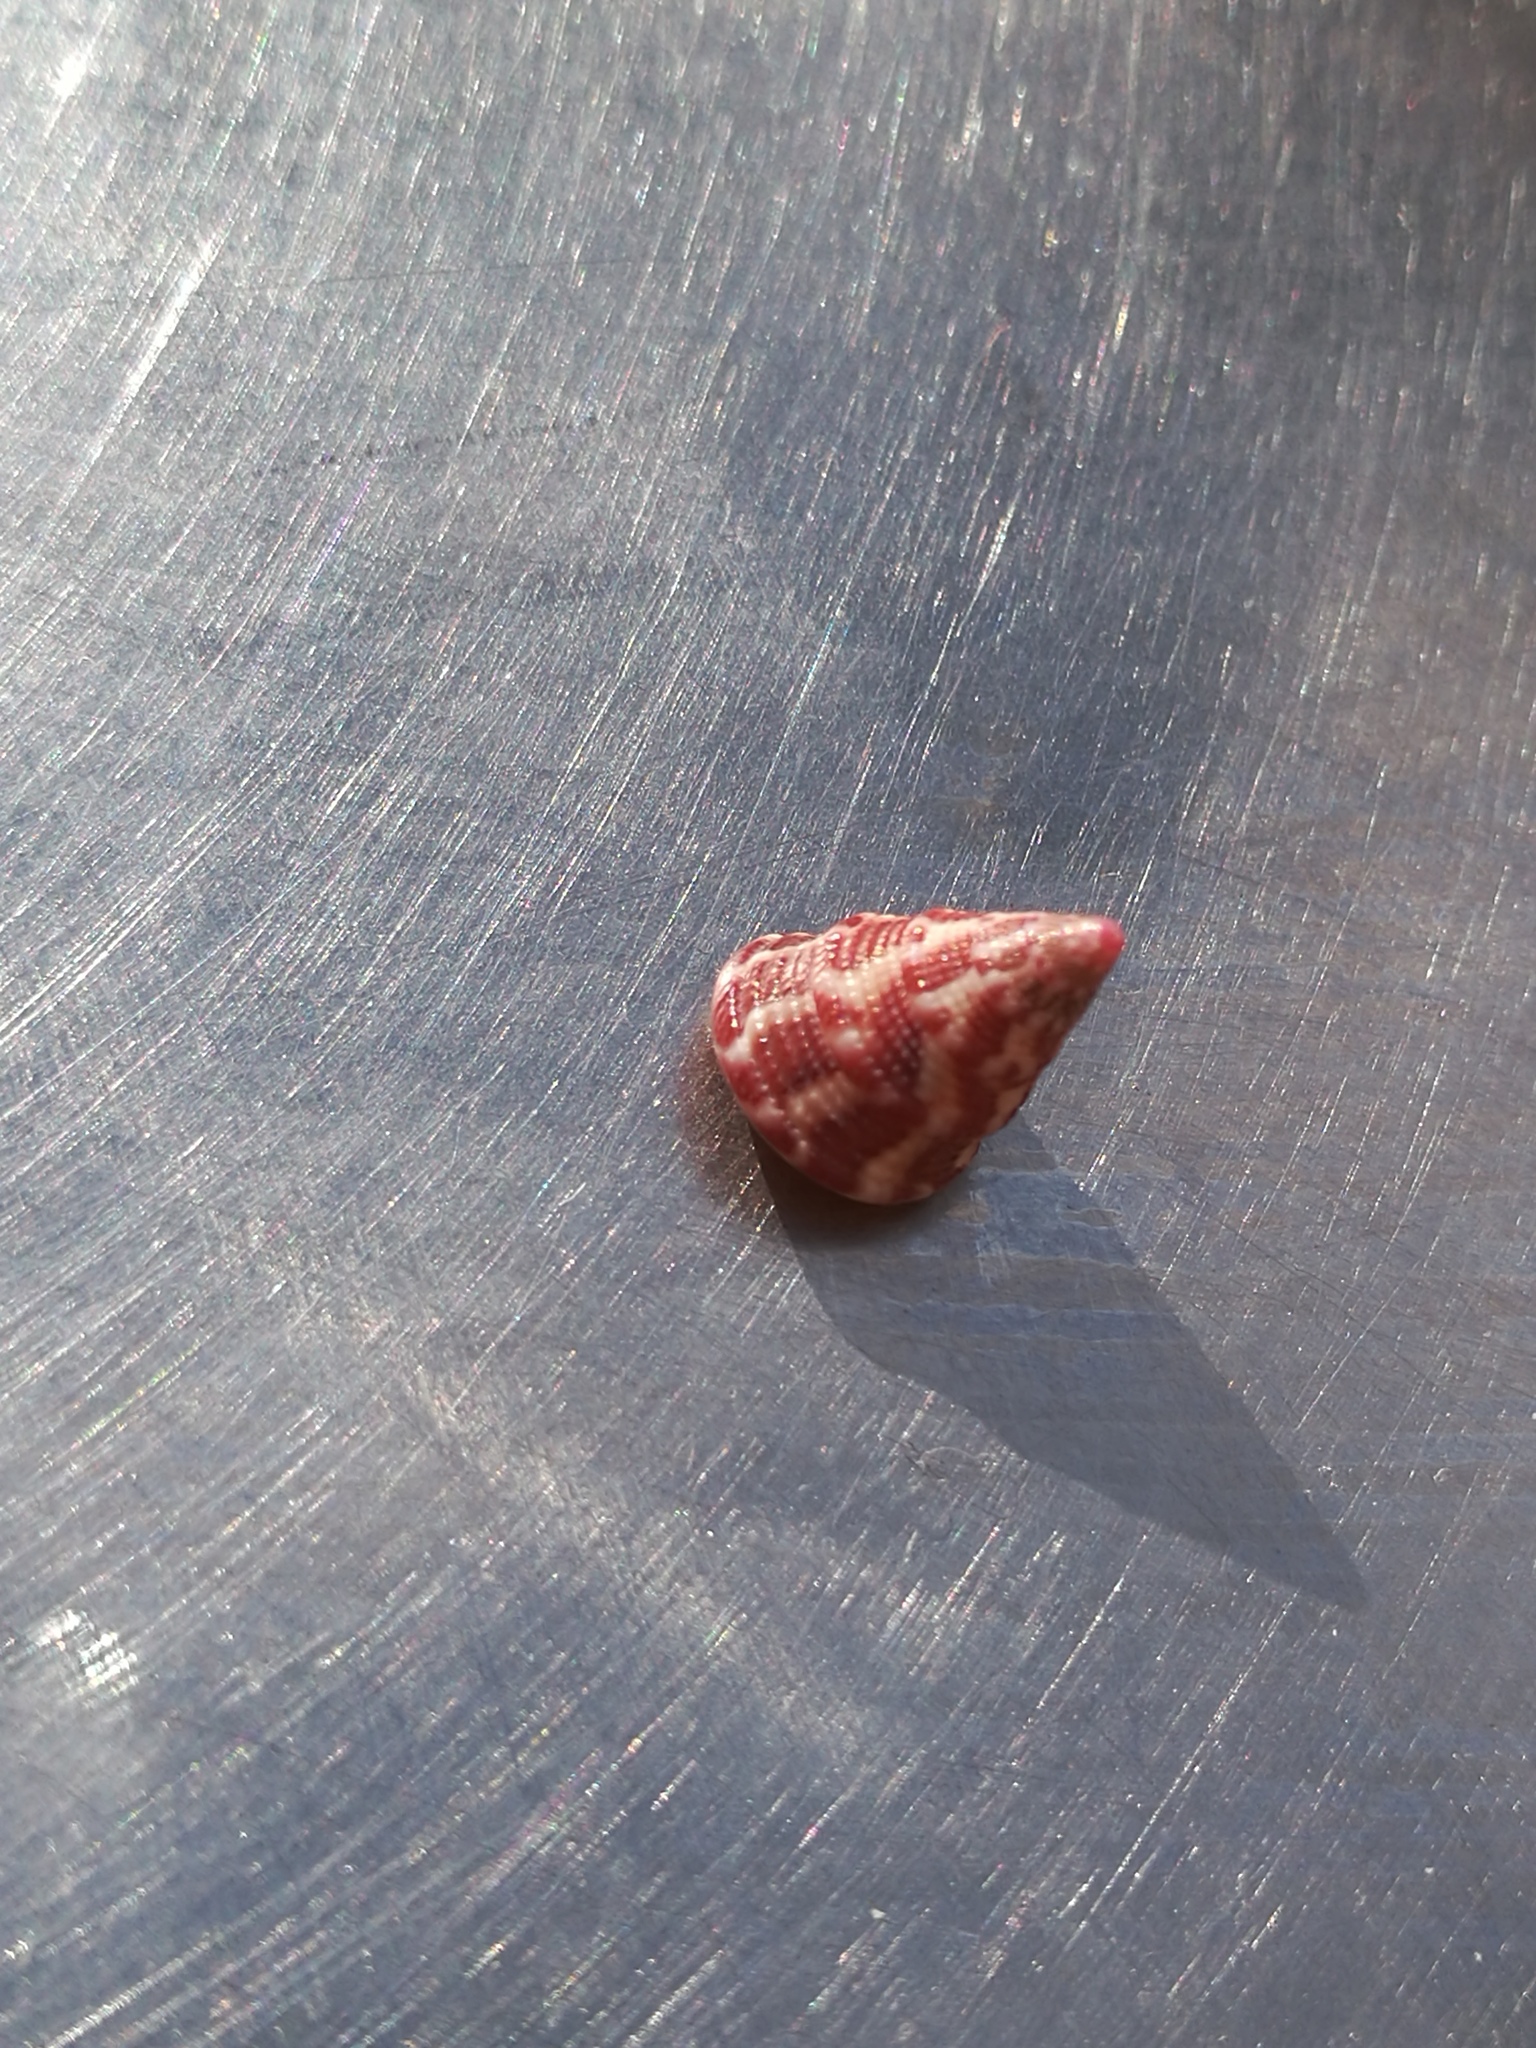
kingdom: Animalia
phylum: Mollusca
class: Gastropoda
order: Trochida
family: Trochidae
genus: Jujubinus
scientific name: Jujubinus exasperatus
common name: Rough top shell
